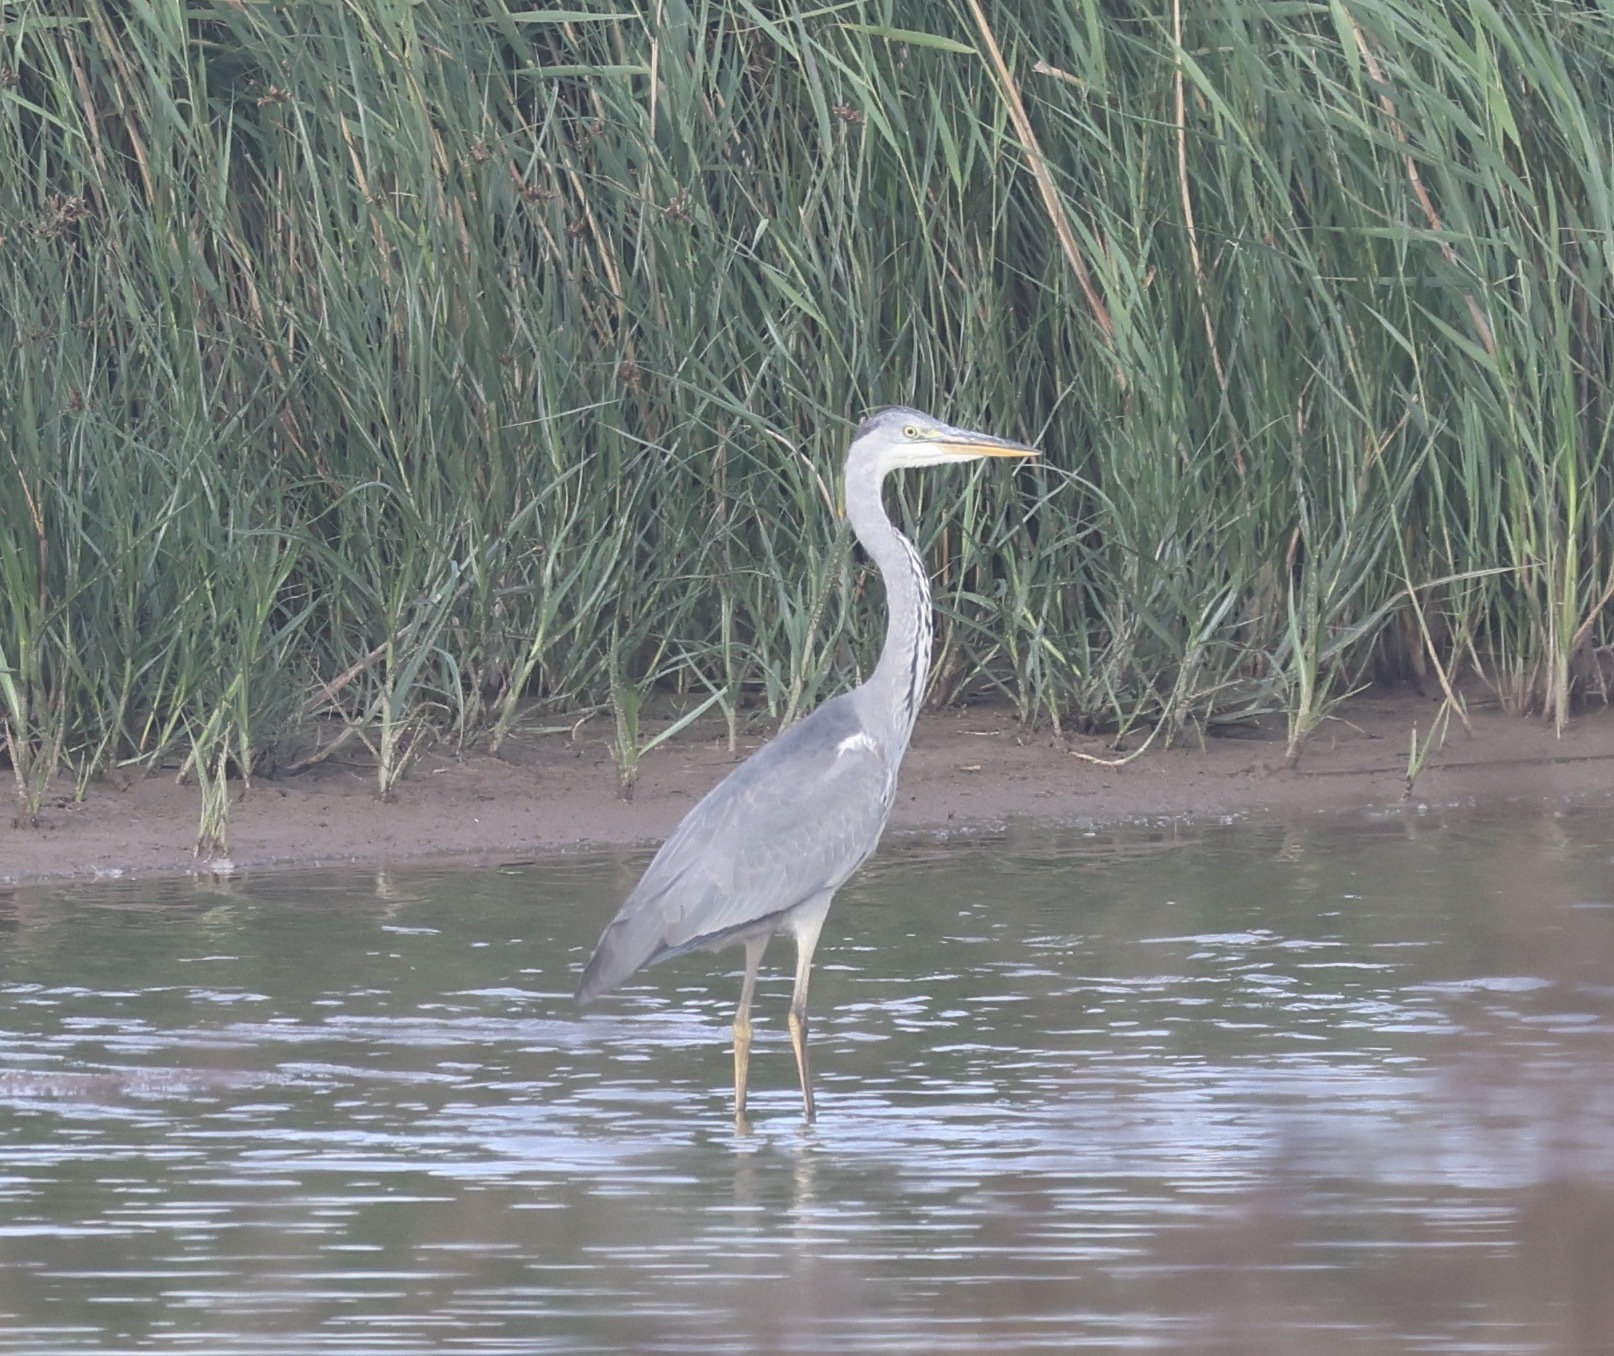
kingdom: Animalia
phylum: Chordata
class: Aves
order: Pelecaniformes
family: Ardeidae
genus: Ardea
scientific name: Ardea cinerea
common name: Grey heron
